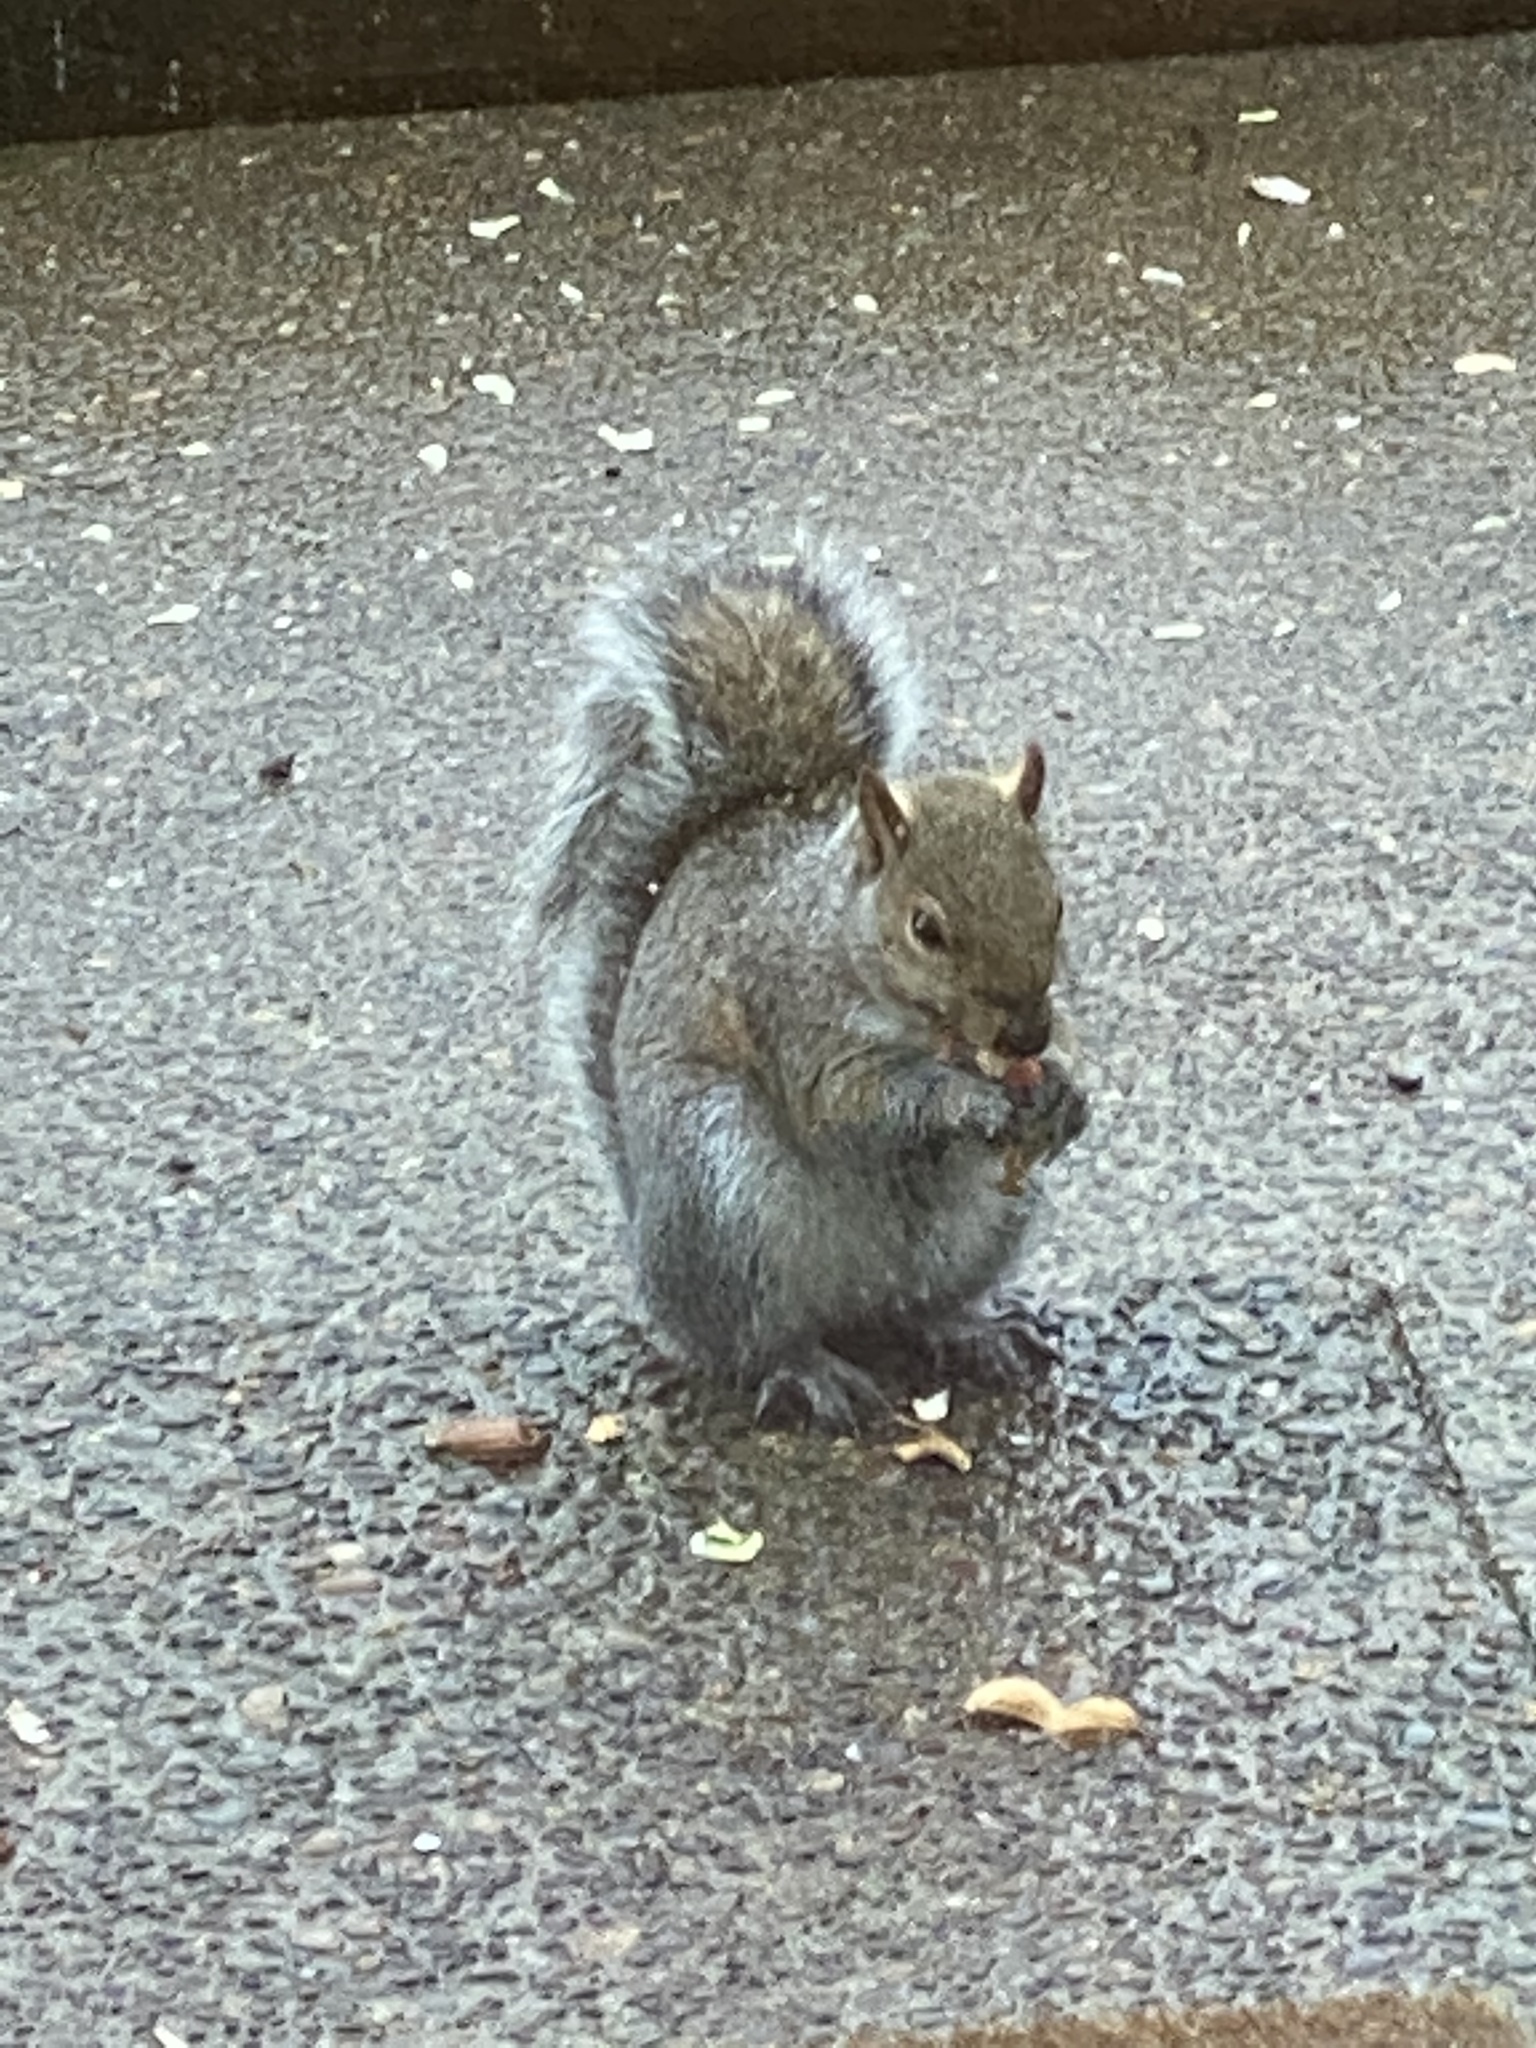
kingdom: Animalia
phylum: Chordata
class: Mammalia
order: Rodentia
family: Sciuridae
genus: Sciurus
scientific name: Sciurus carolinensis
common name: Eastern gray squirrel
